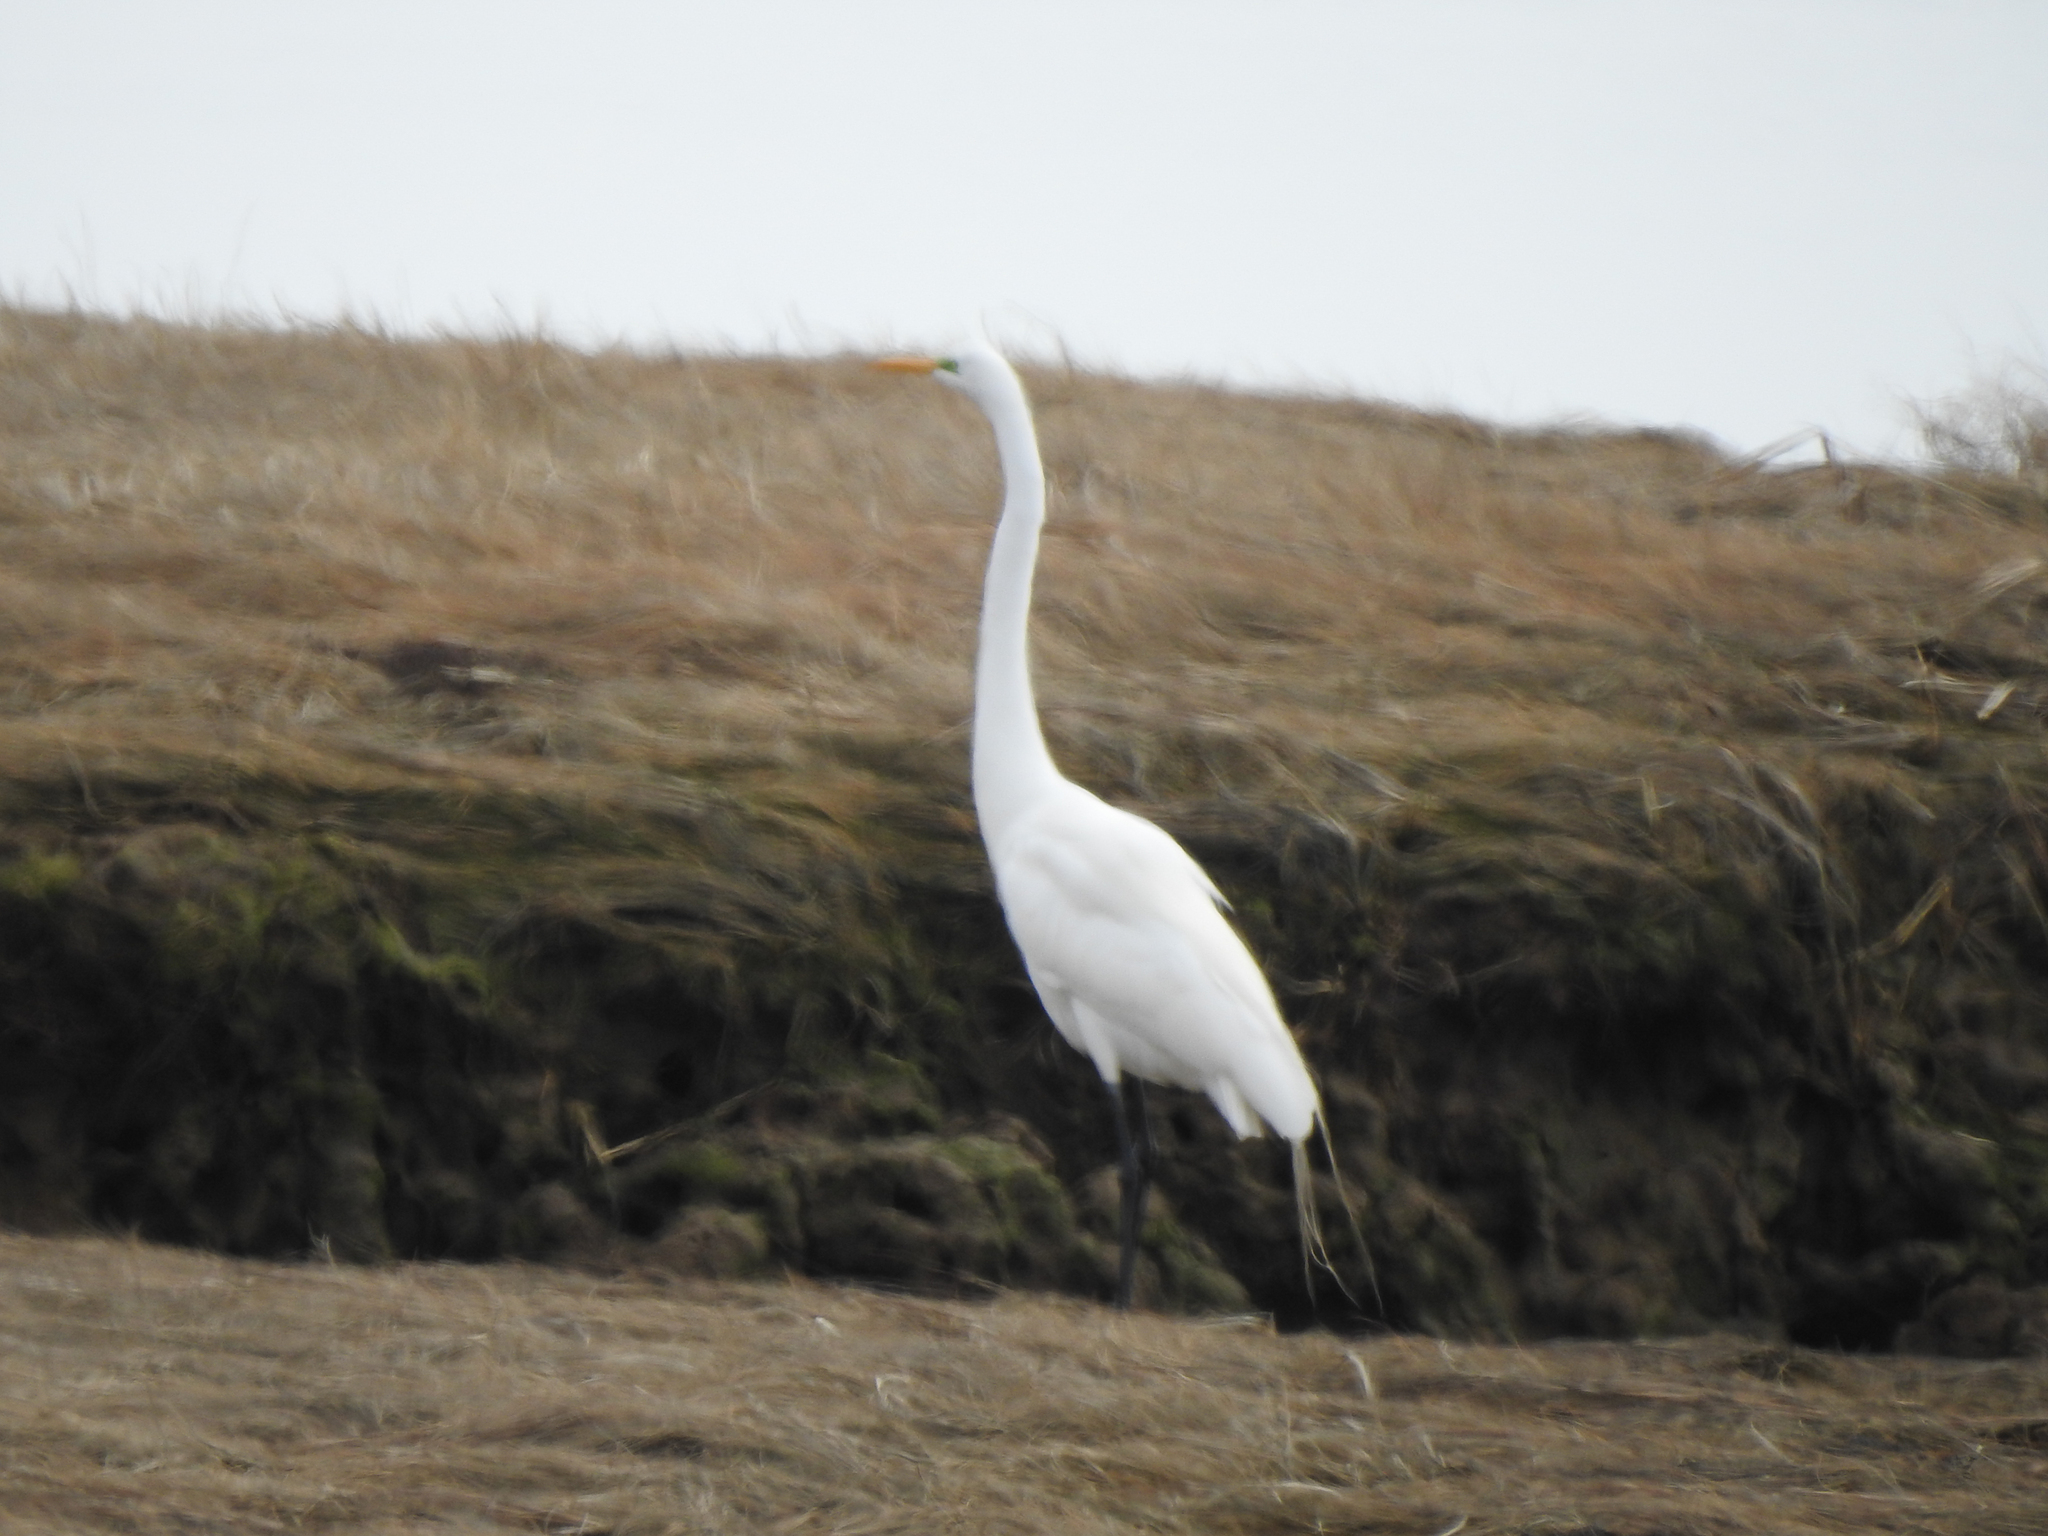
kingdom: Animalia
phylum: Chordata
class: Aves
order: Pelecaniformes
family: Ardeidae
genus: Ardea
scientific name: Ardea alba
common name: Great egret
